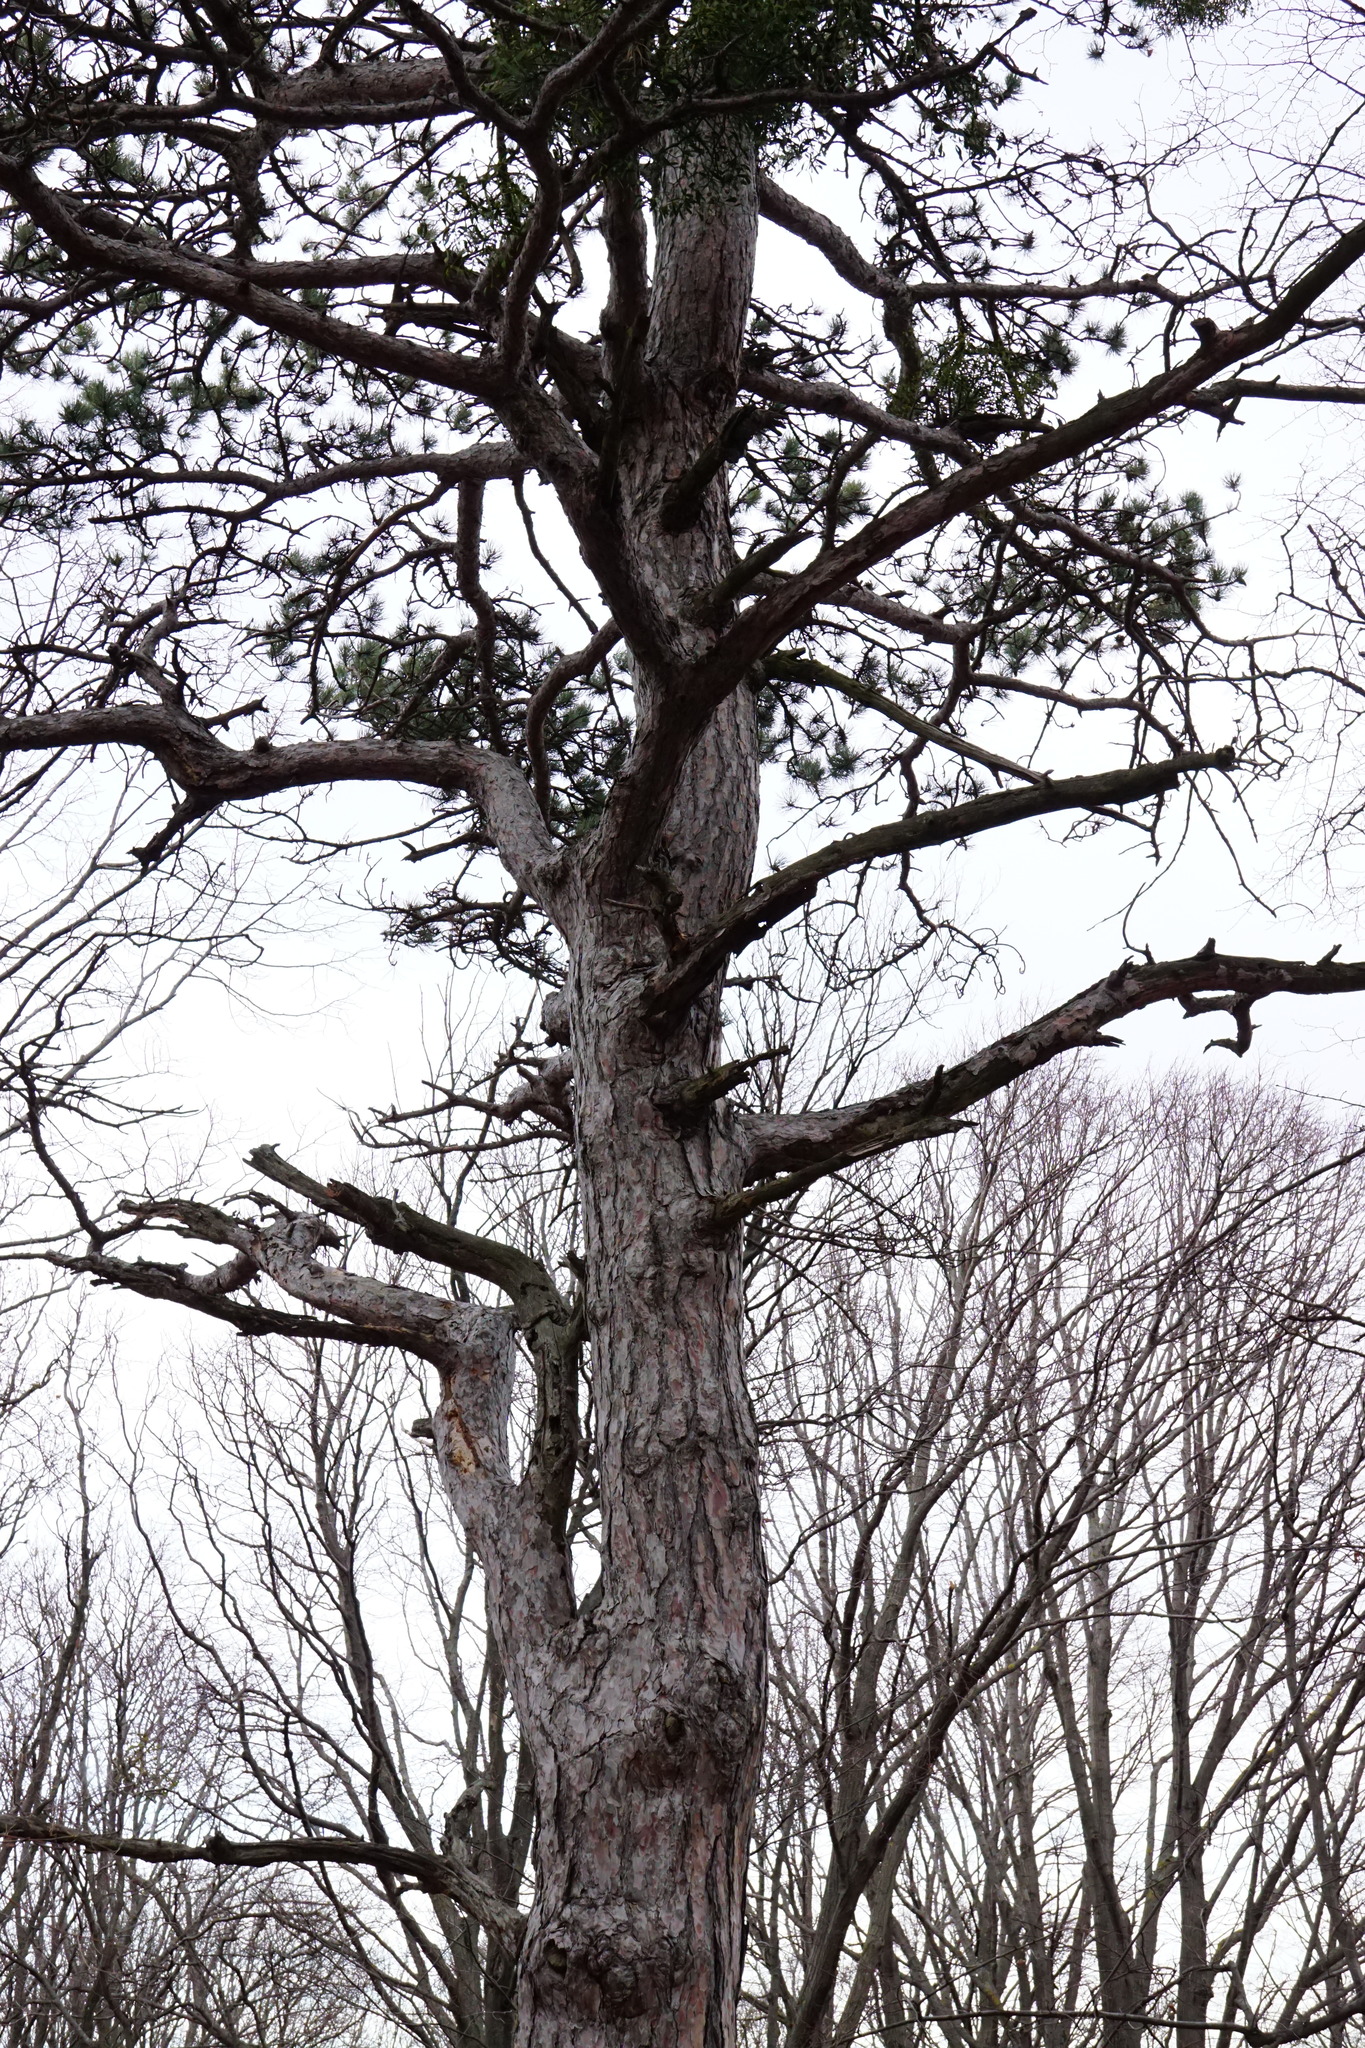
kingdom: Plantae
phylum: Tracheophyta
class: Pinopsida
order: Pinales
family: Pinaceae
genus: Pinus
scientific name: Pinus nigra
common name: Austrian pine
